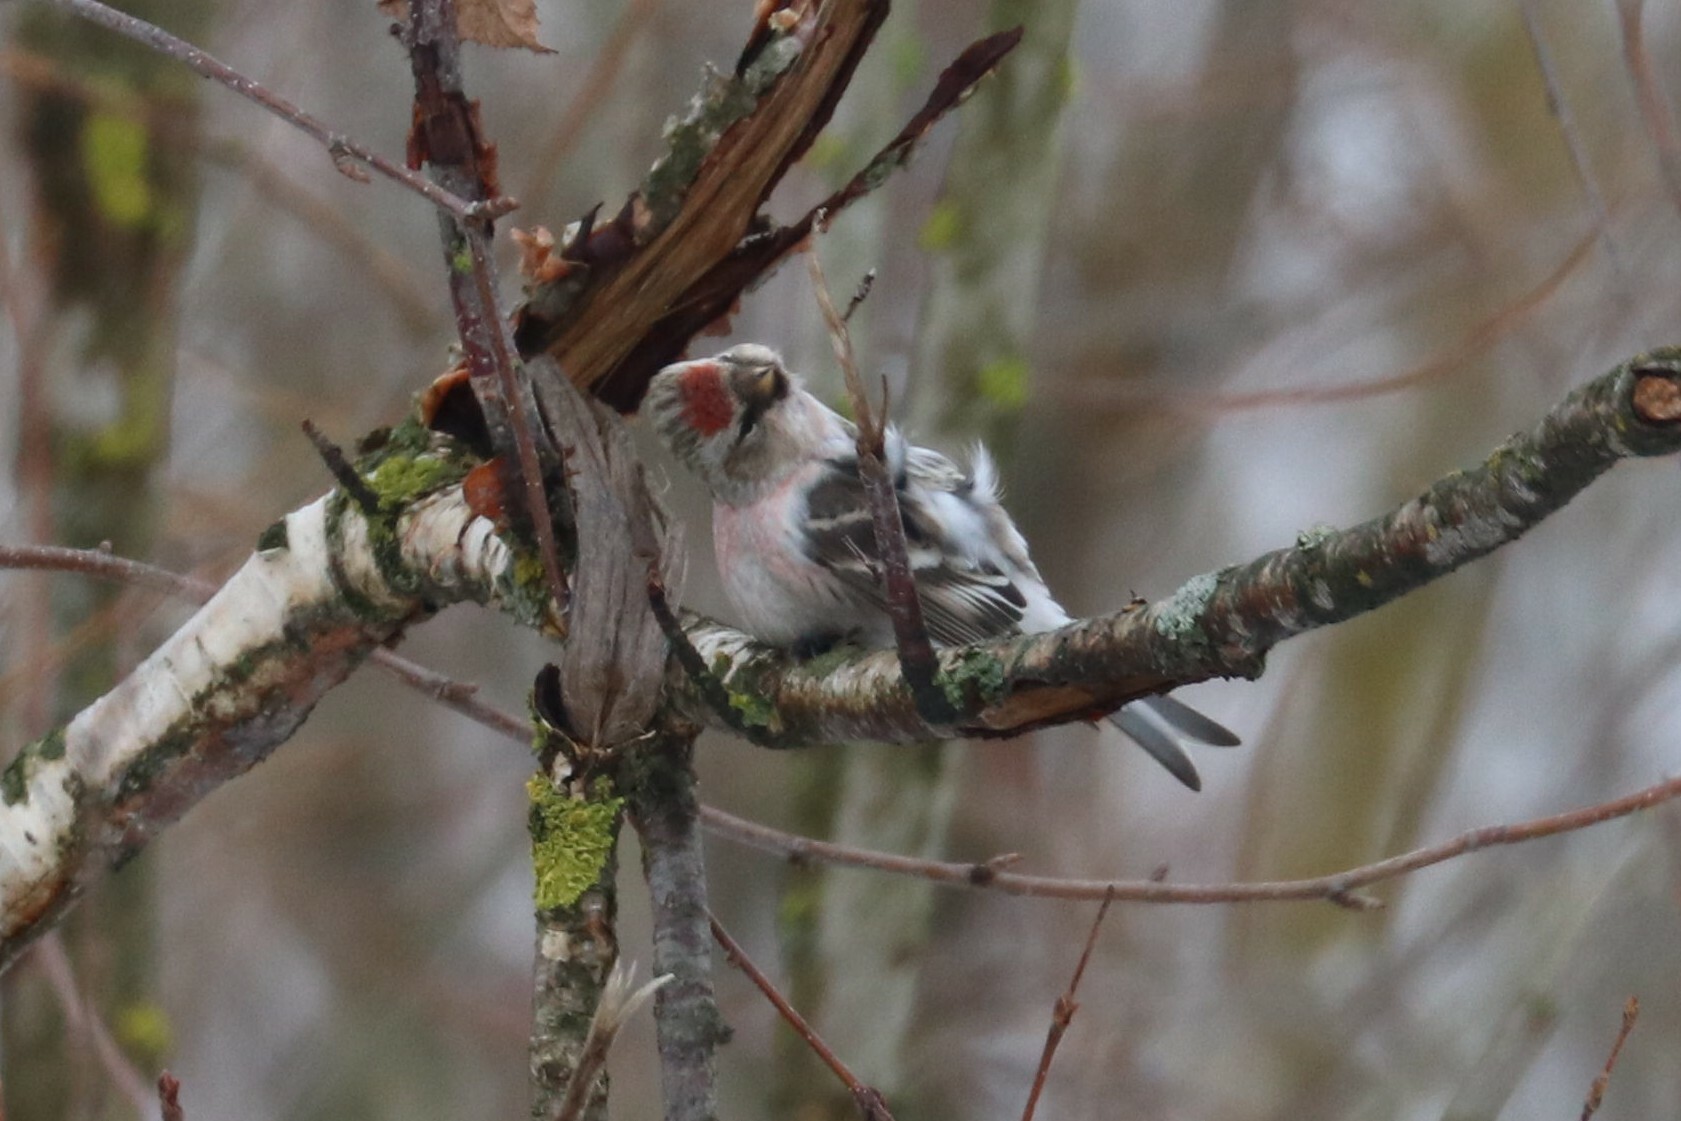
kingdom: Animalia
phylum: Chordata
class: Aves
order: Passeriformes
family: Fringillidae
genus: Acanthis
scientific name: Acanthis hornemanni
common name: Arctic redpoll
